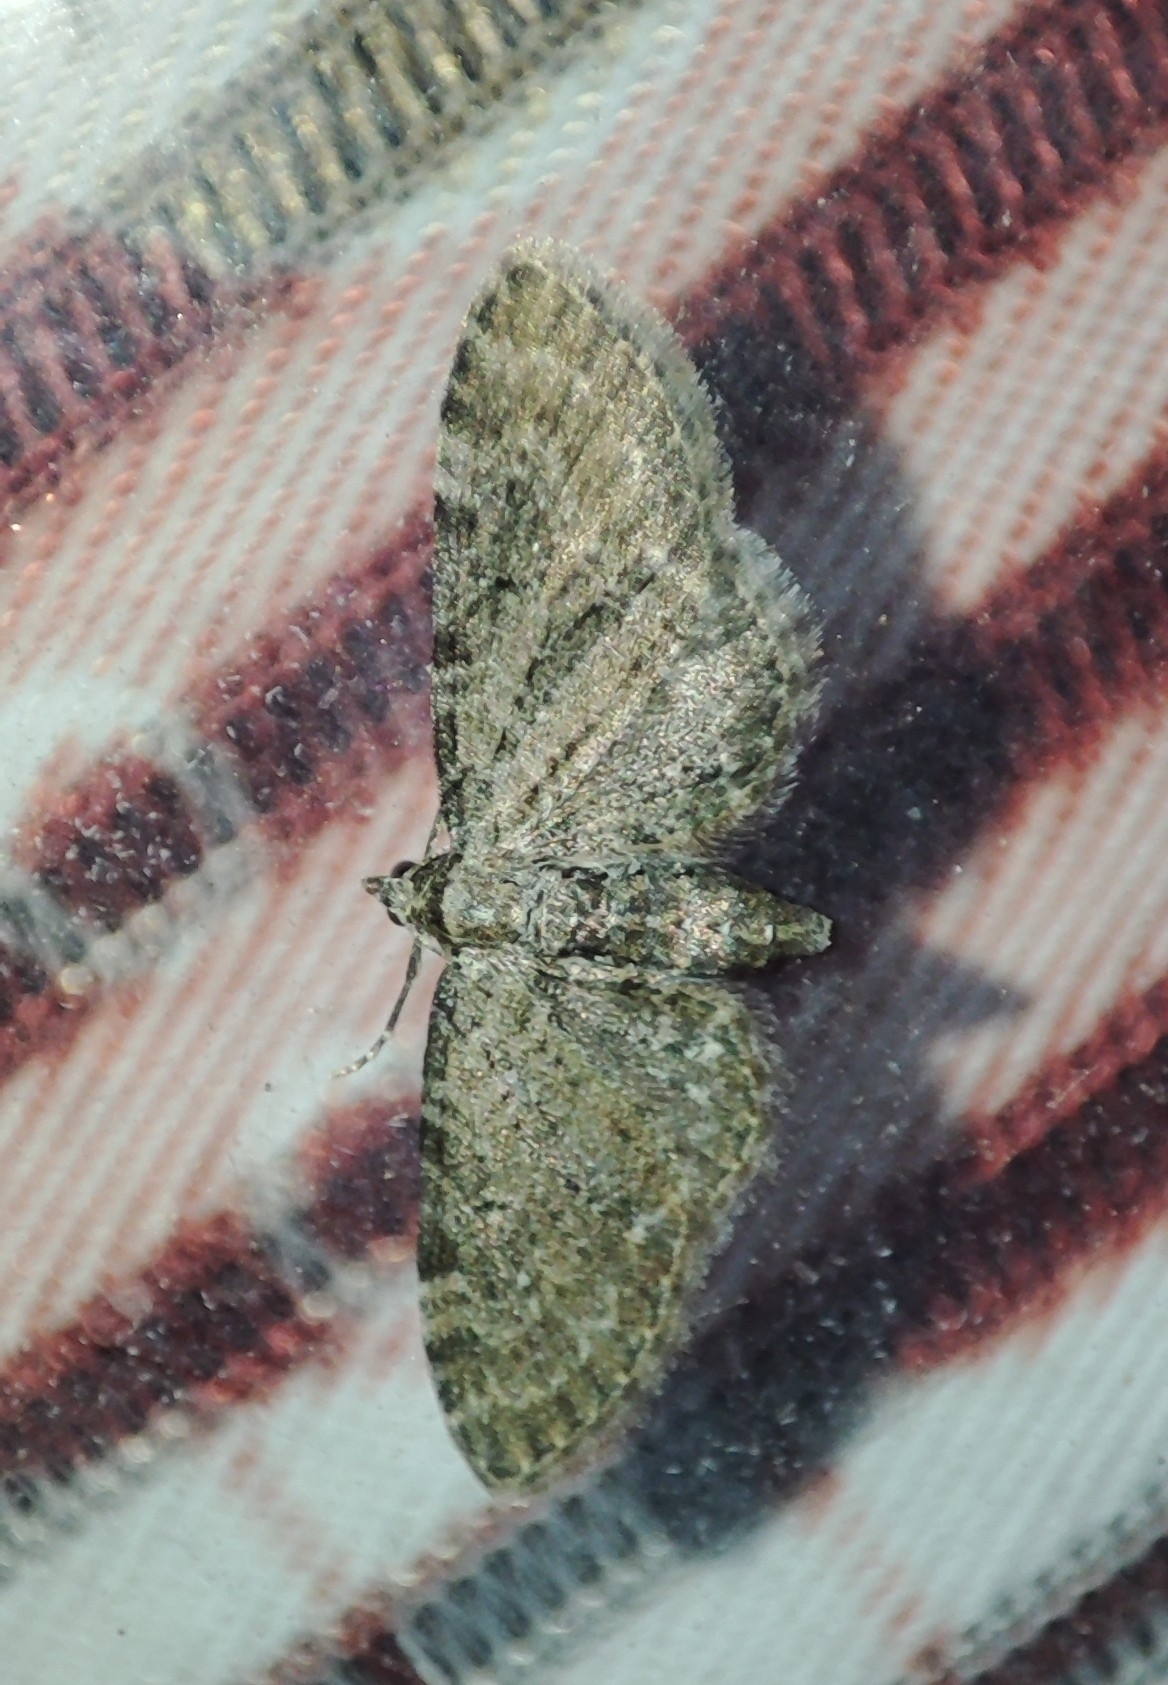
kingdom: Animalia
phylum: Arthropoda
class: Insecta
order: Lepidoptera
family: Geometridae
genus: Eupithecia
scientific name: Eupithecia vulgata
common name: Common pug
